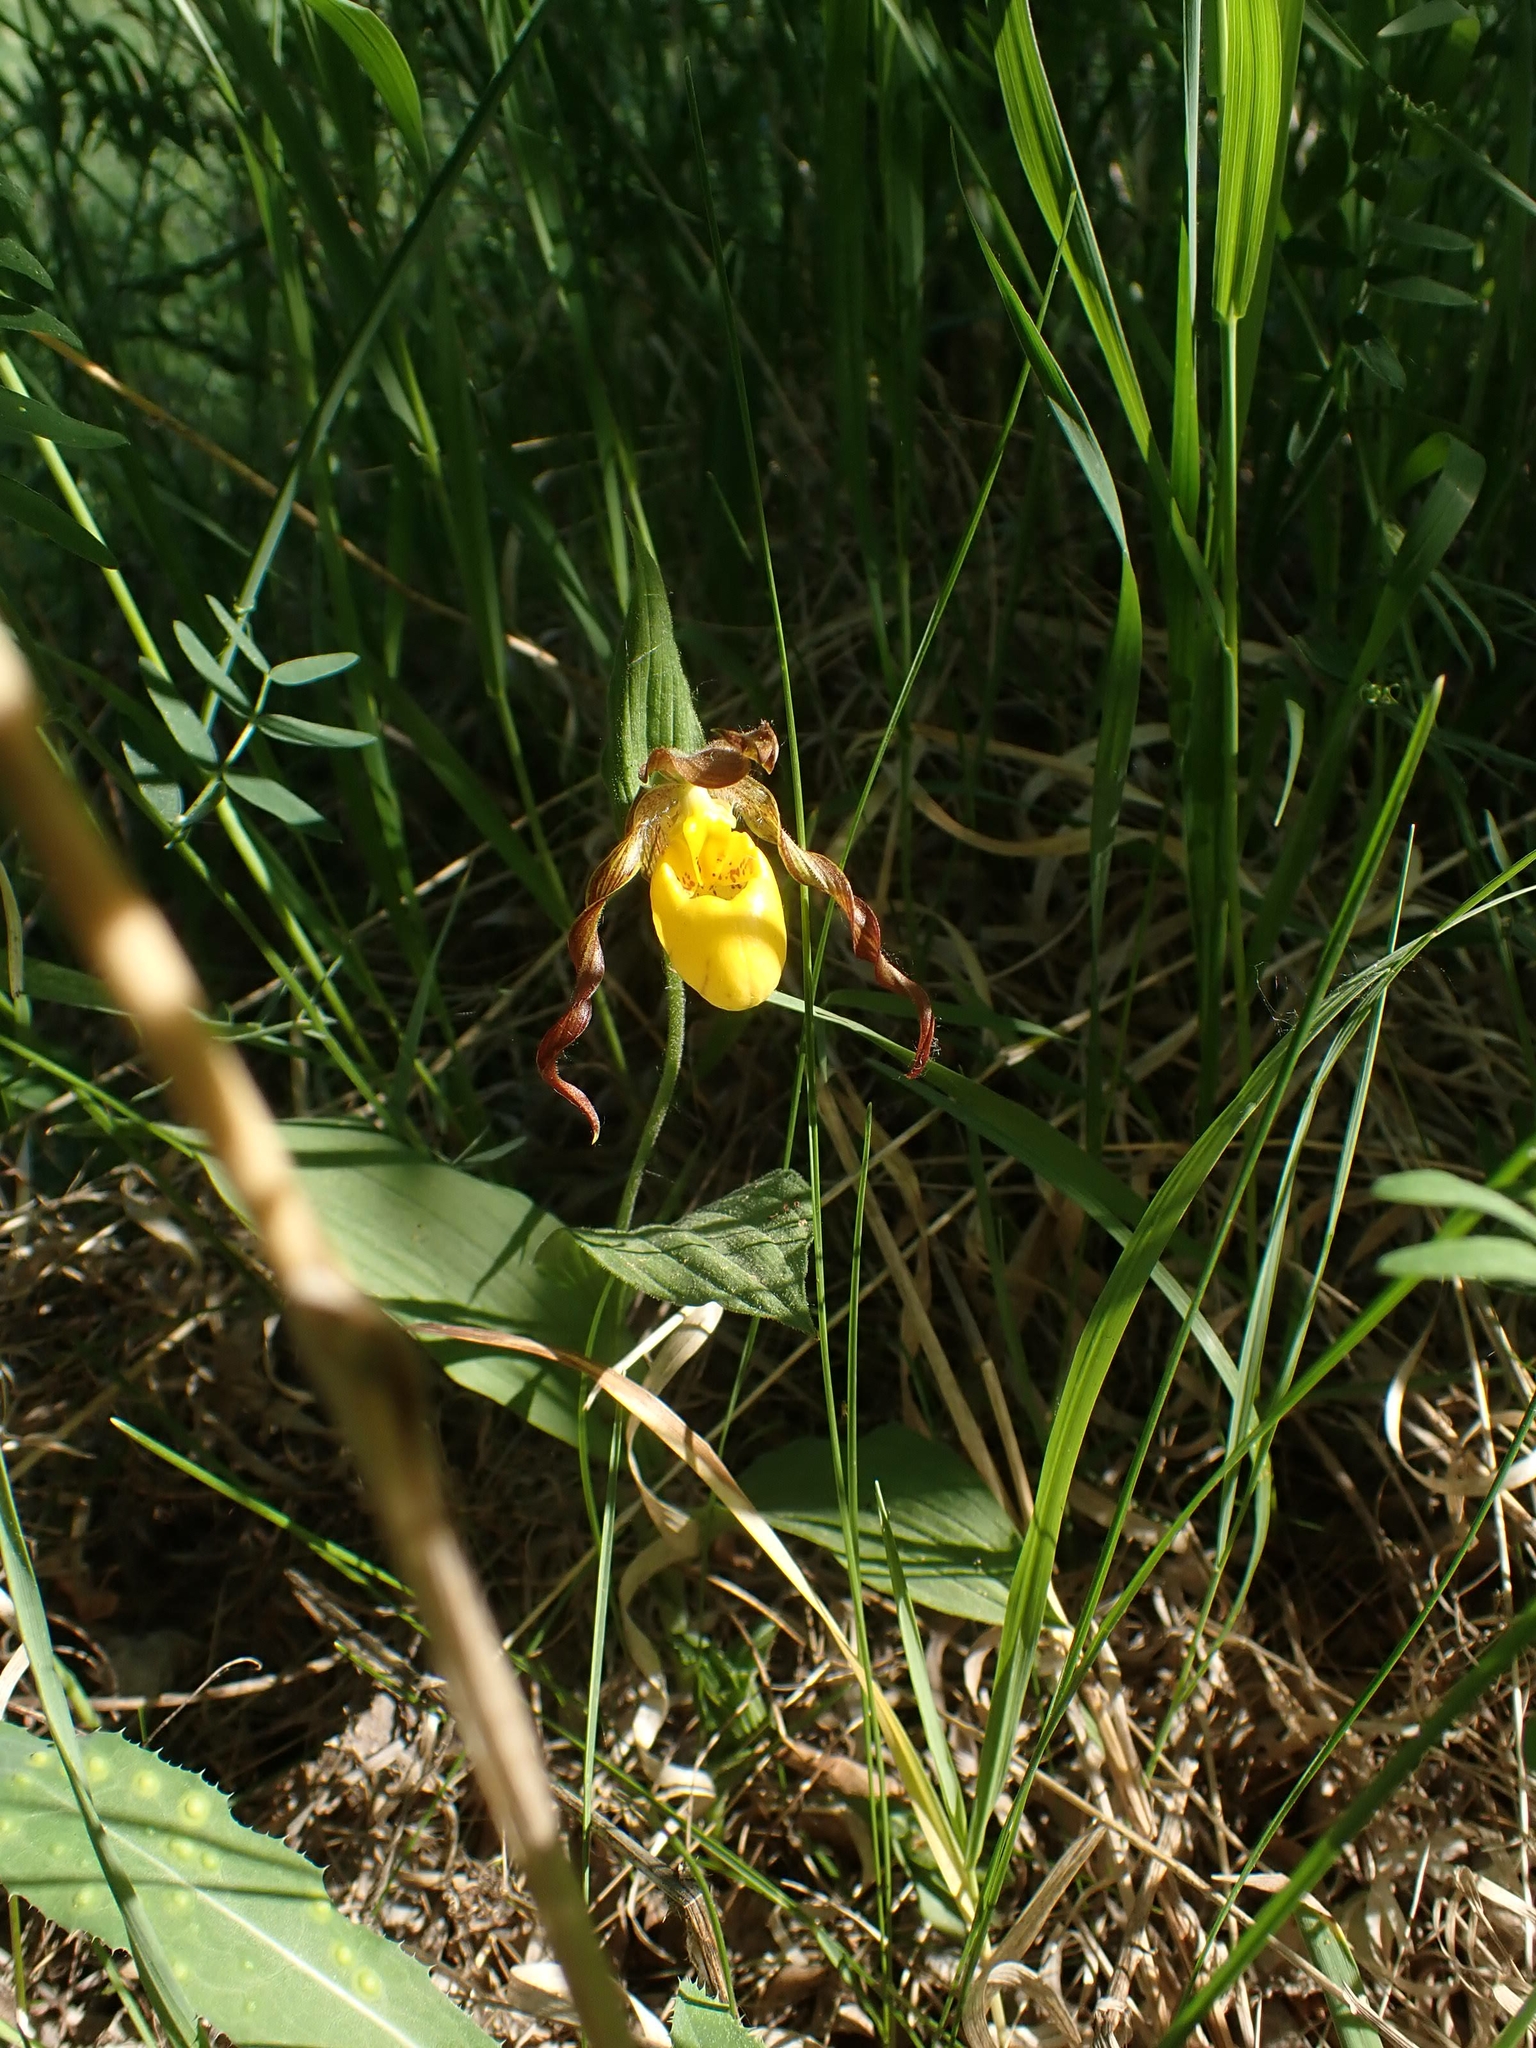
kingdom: Plantae
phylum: Tracheophyta
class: Liliopsida
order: Asparagales
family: Orchidaceae
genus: Cypripedium
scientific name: Cypripedium parviflorum
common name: American yellow lady's-slipper
